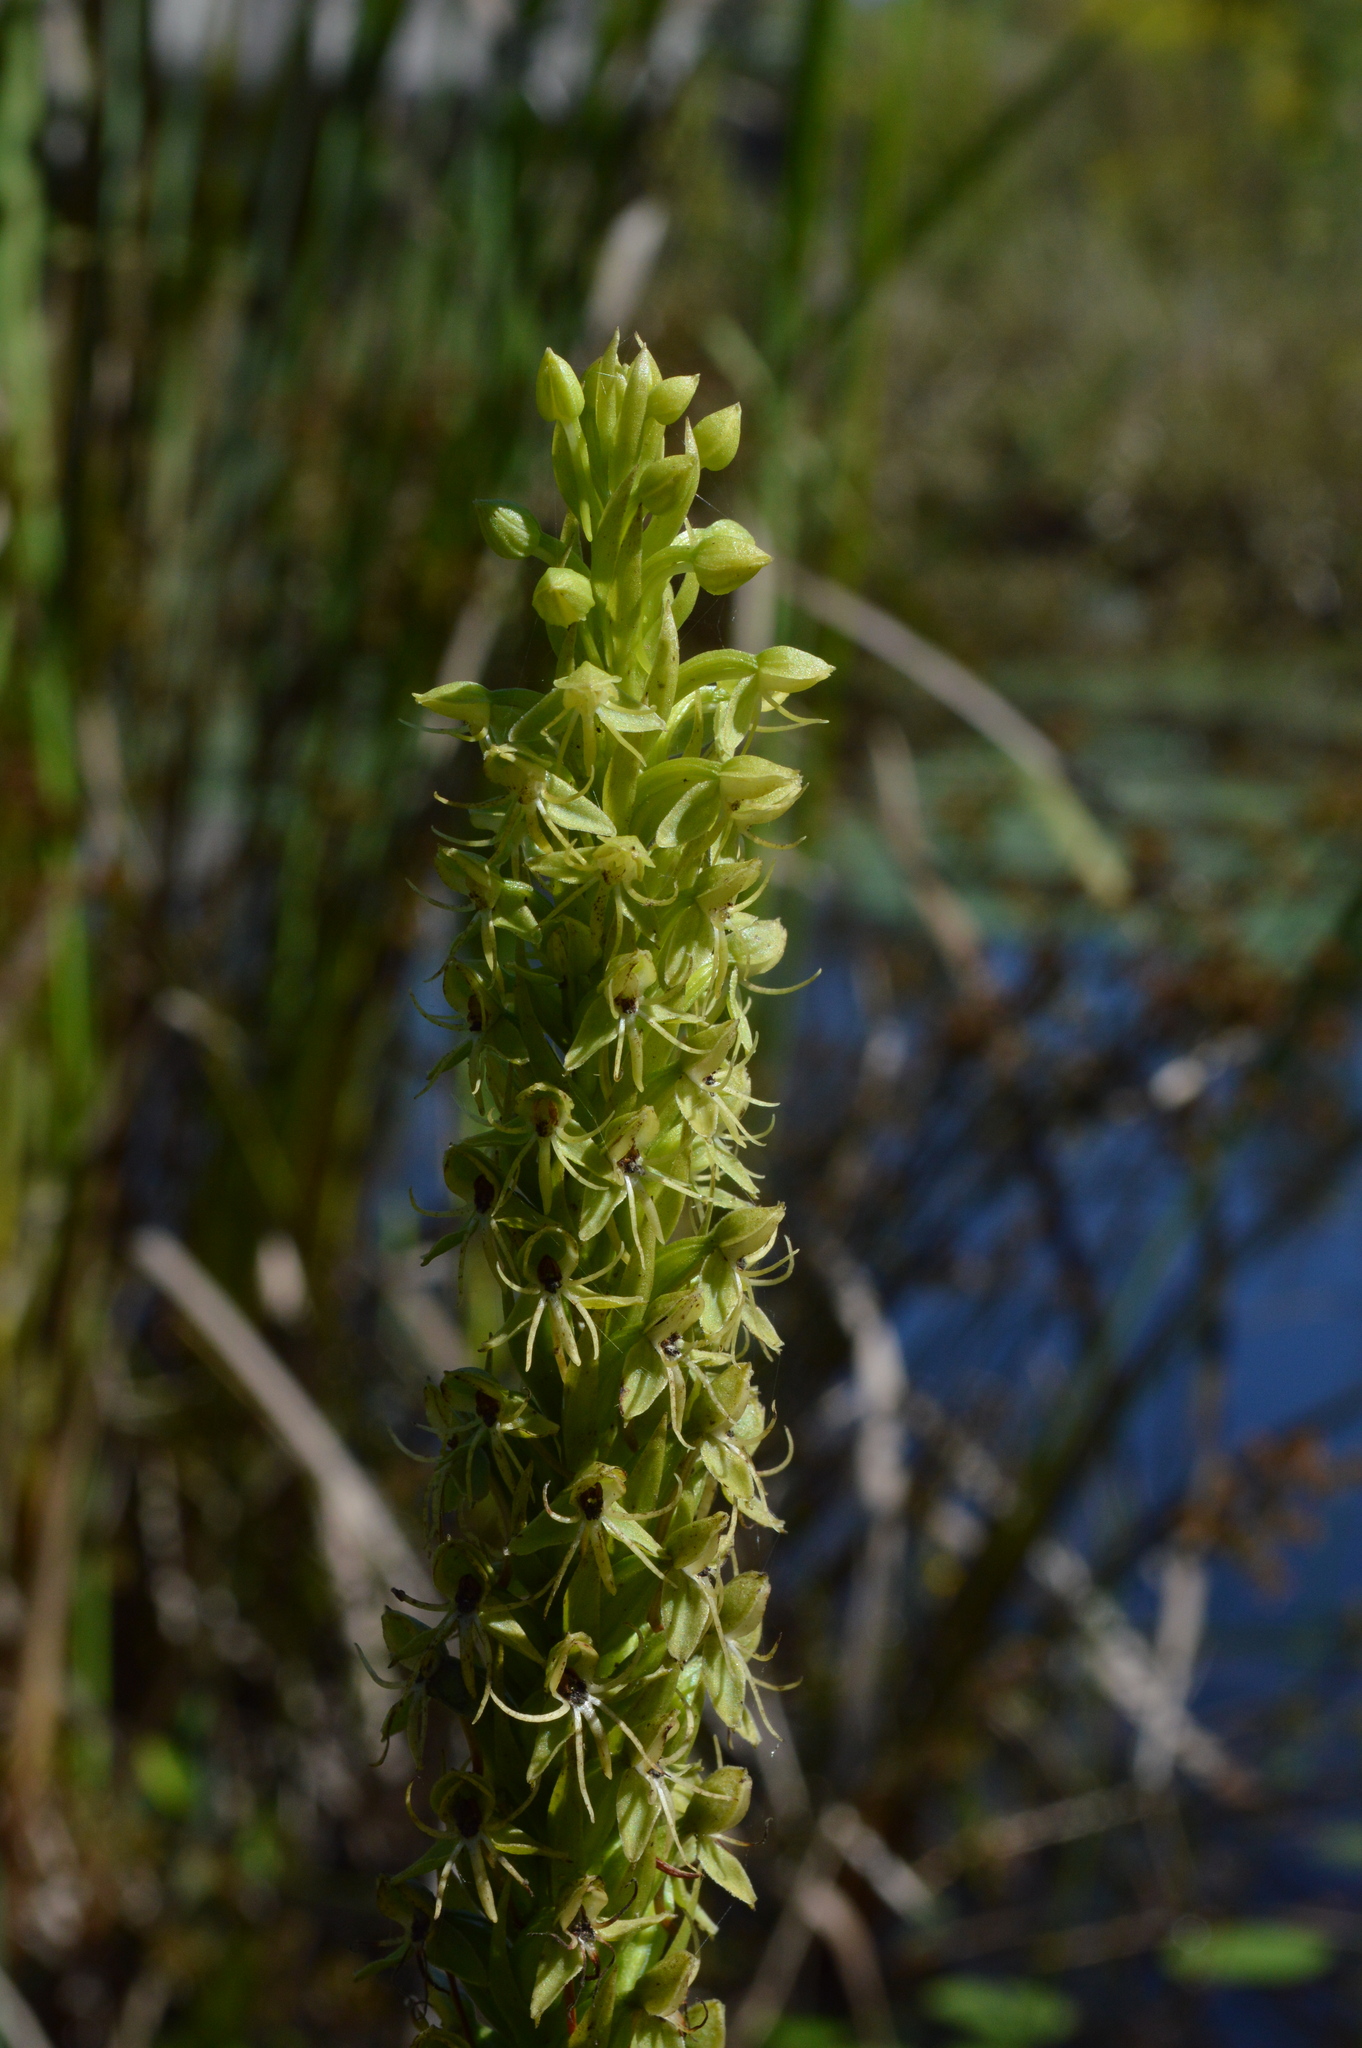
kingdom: Plantae
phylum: Tracheophyta
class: Liliopsida
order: Asparagales
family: Orchidaceae
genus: Habenaria
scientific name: Habenaria repens
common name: Water orchid
